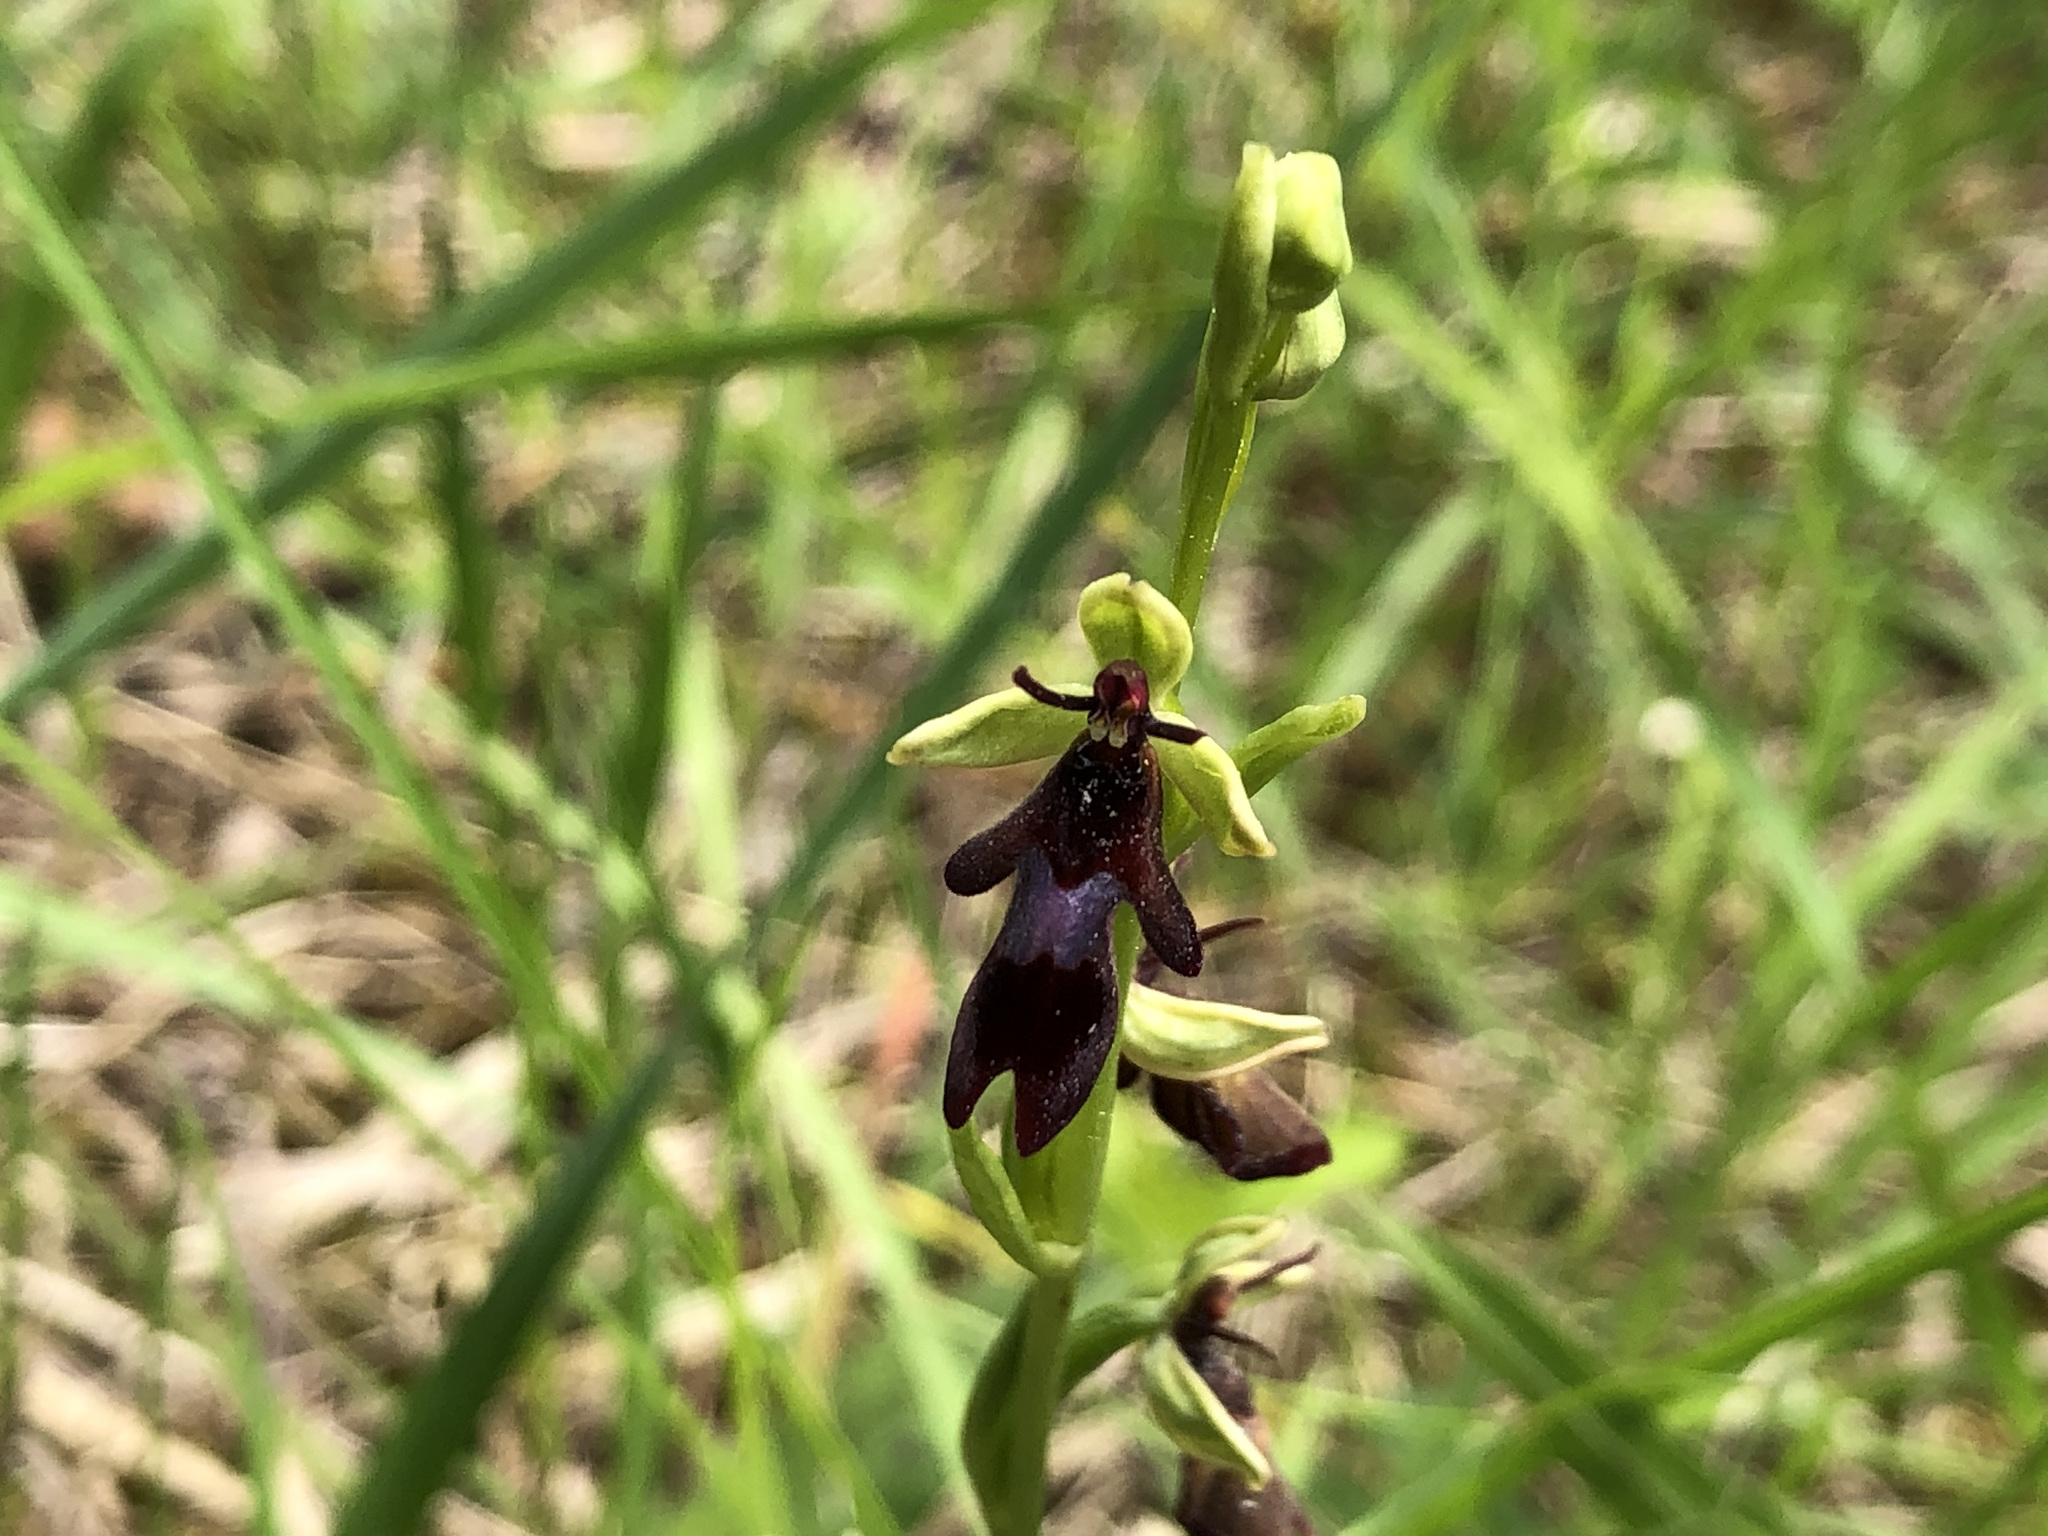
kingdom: Plantae
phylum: Tracheophyta
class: Liliopsida
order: Asparagales
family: Orchidaceae
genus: Ophrys
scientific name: Ophrys insectifera
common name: Fly orchid
